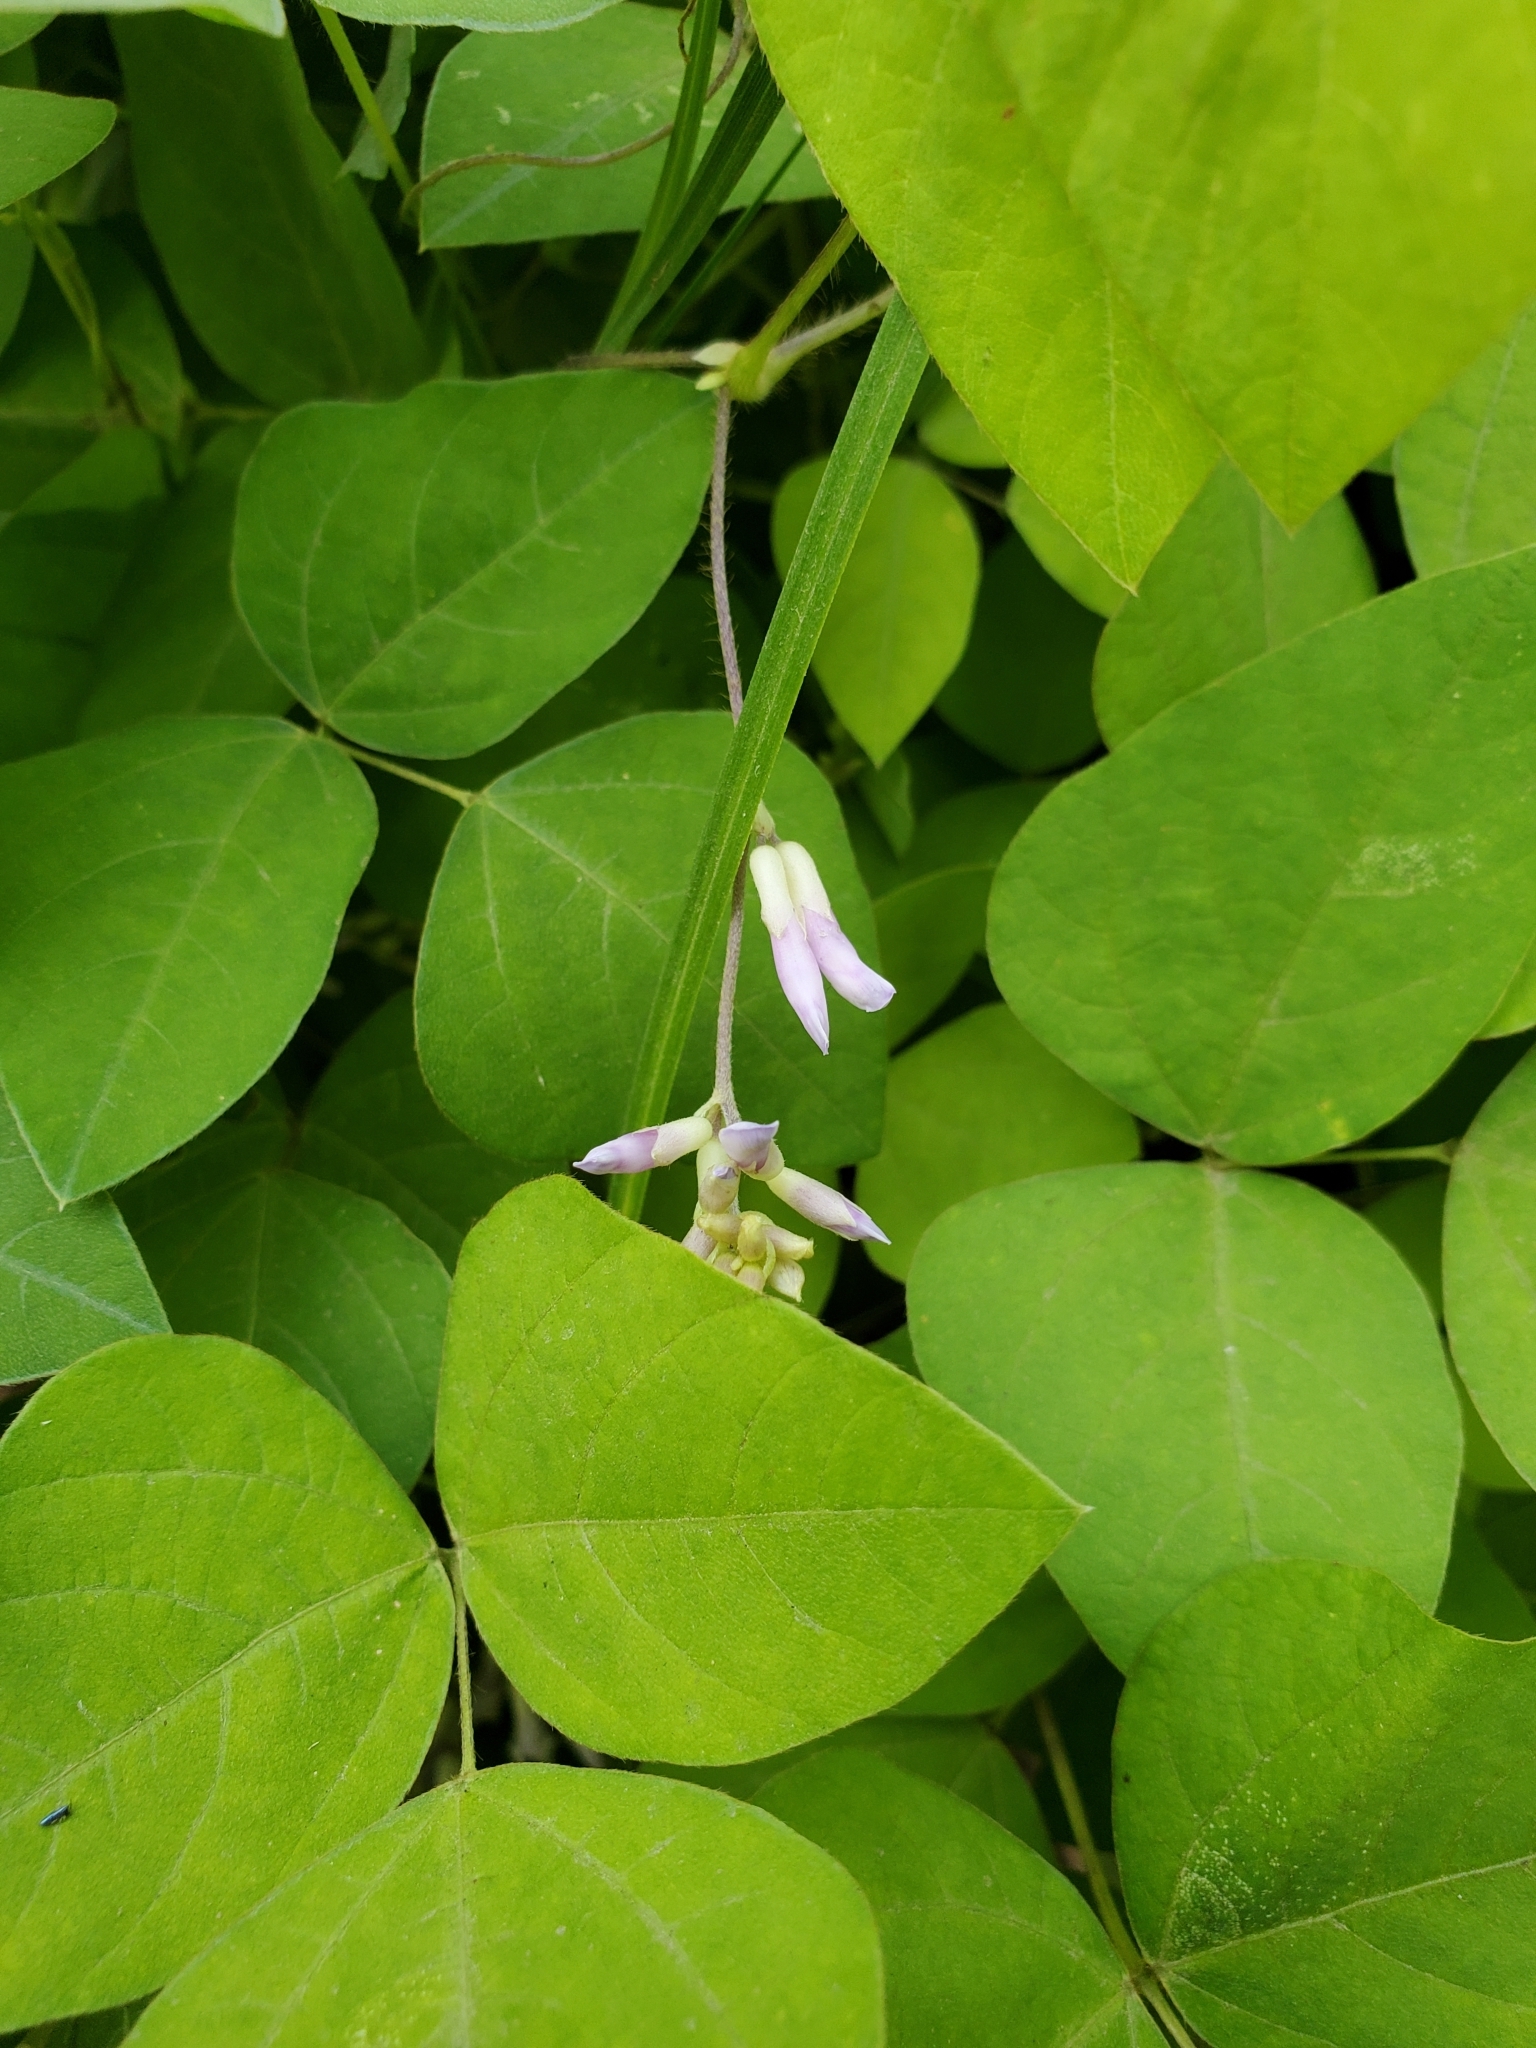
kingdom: Plantae
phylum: Tracheophyta
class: Magnoliopsida
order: Fabales
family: Fabaceae
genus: Amphicarpaea
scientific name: Amphicarpaea bracteata
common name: American hog peanut
